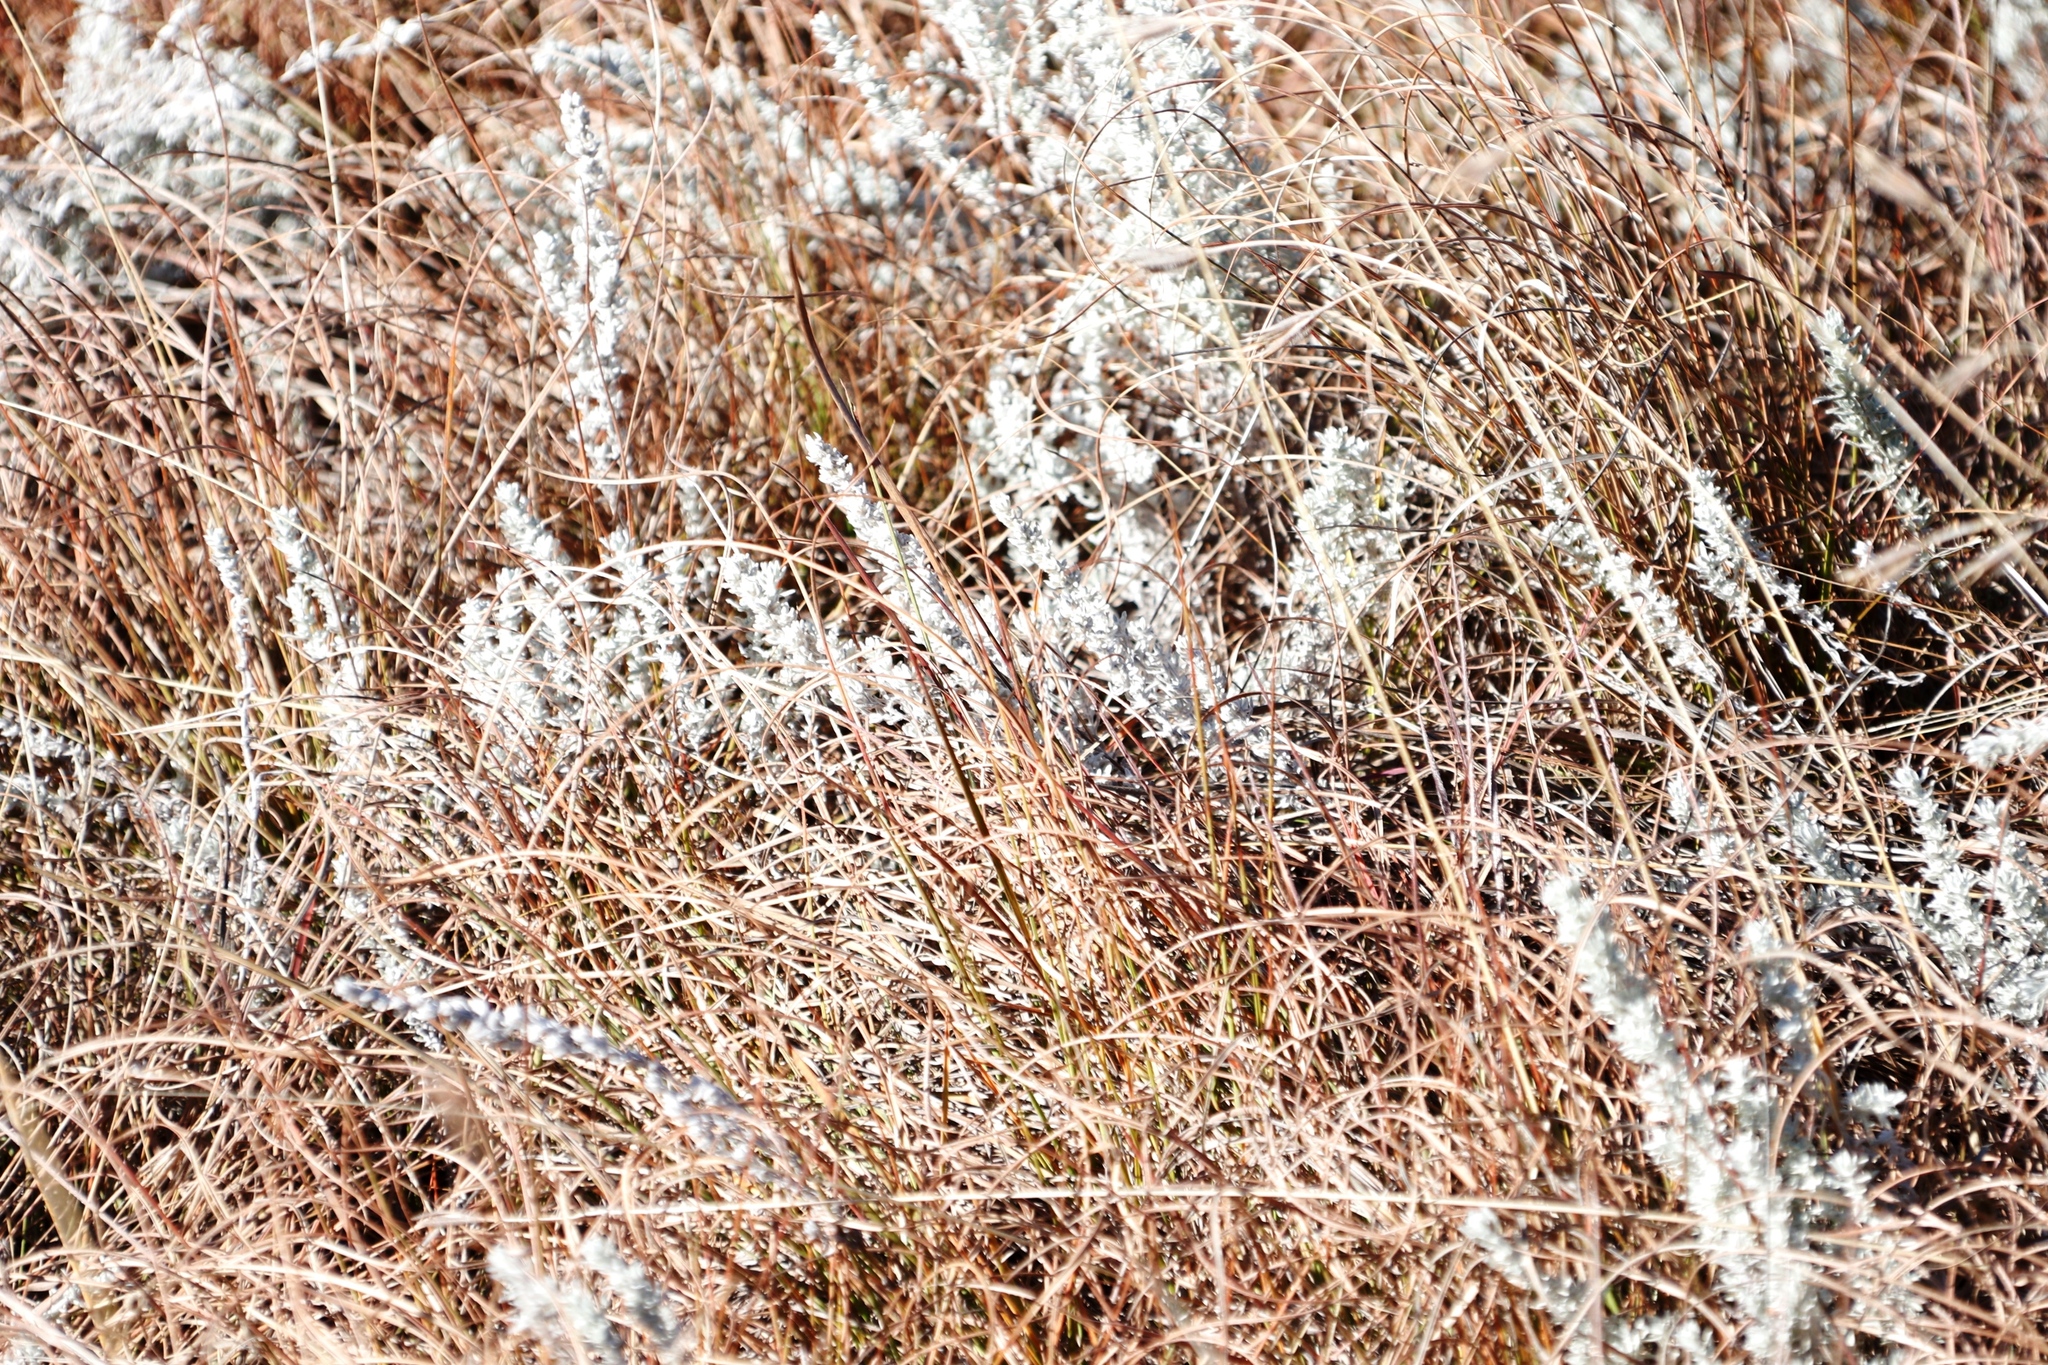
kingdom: Plantae
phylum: Tracheophyta
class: Magnoliopsida
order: Asterales
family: Asteraceae
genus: Helichrysum
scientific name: Helichrysum aureonitens
